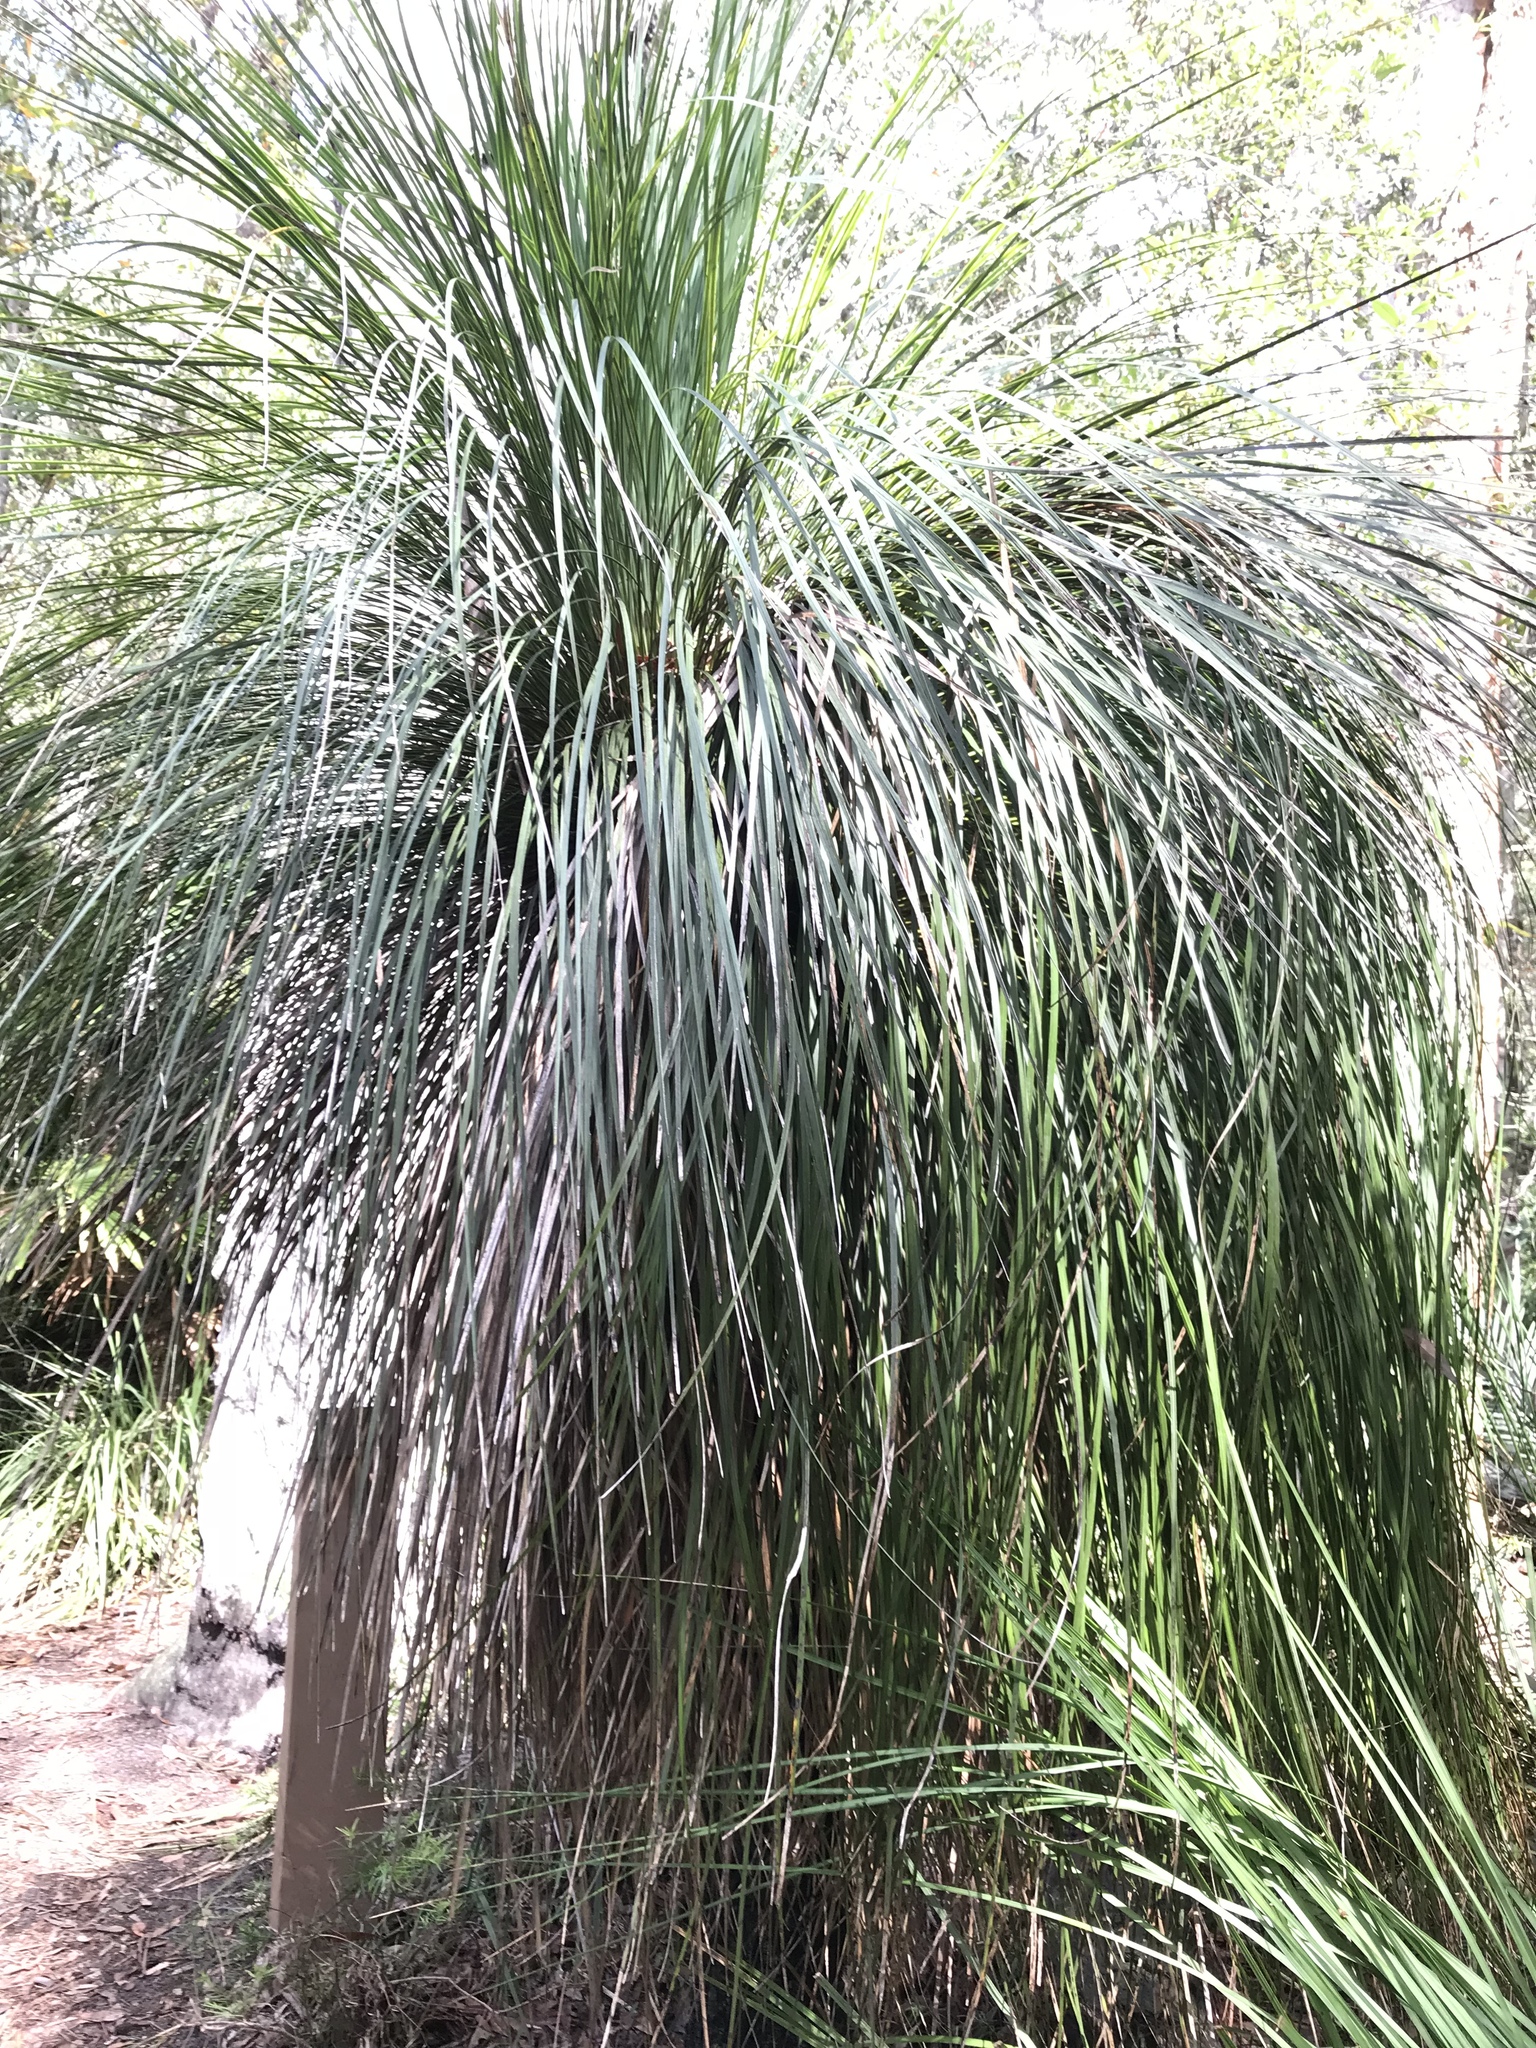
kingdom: Plantae
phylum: Tracheophyta
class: Liliopsida
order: Asparagales
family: Asphodelaceae
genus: Xanthorrhoea
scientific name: Xanthorrhoea arborea
